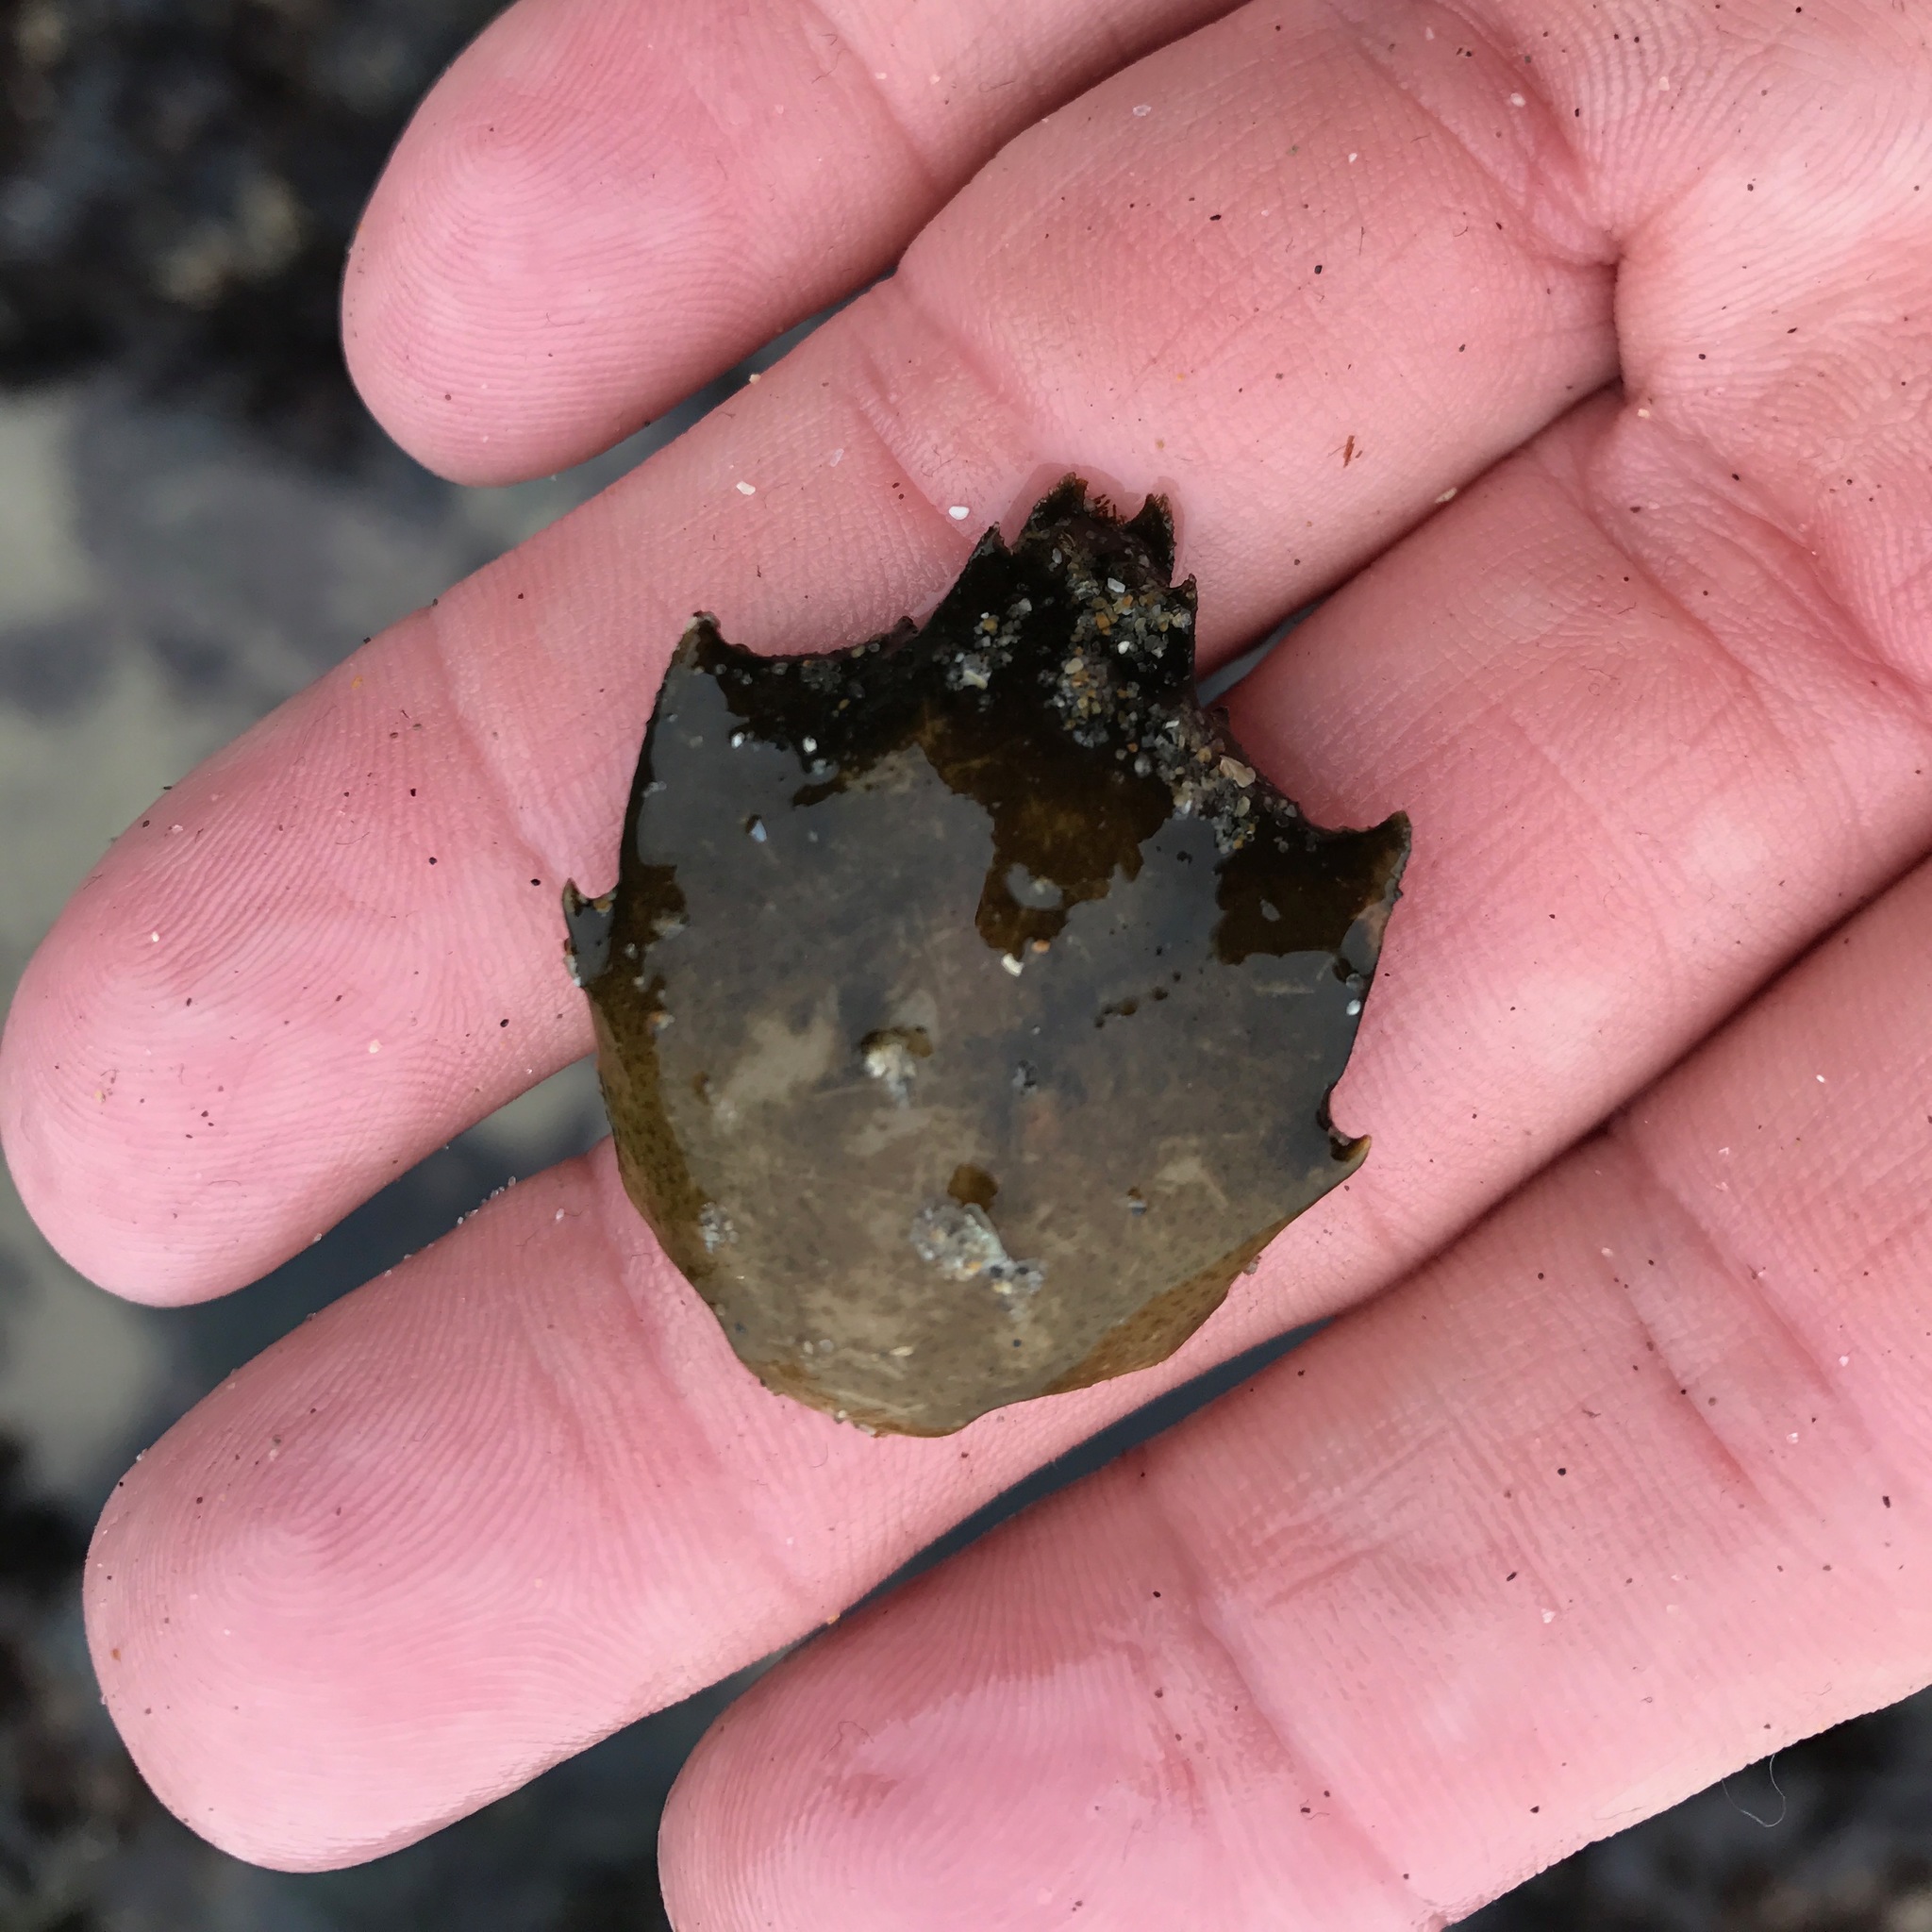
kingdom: Animalia
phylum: Arthropoda
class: Malacostraca
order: Decapoda
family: Epialtidae
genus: Pugettia
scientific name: Pugettia producta
